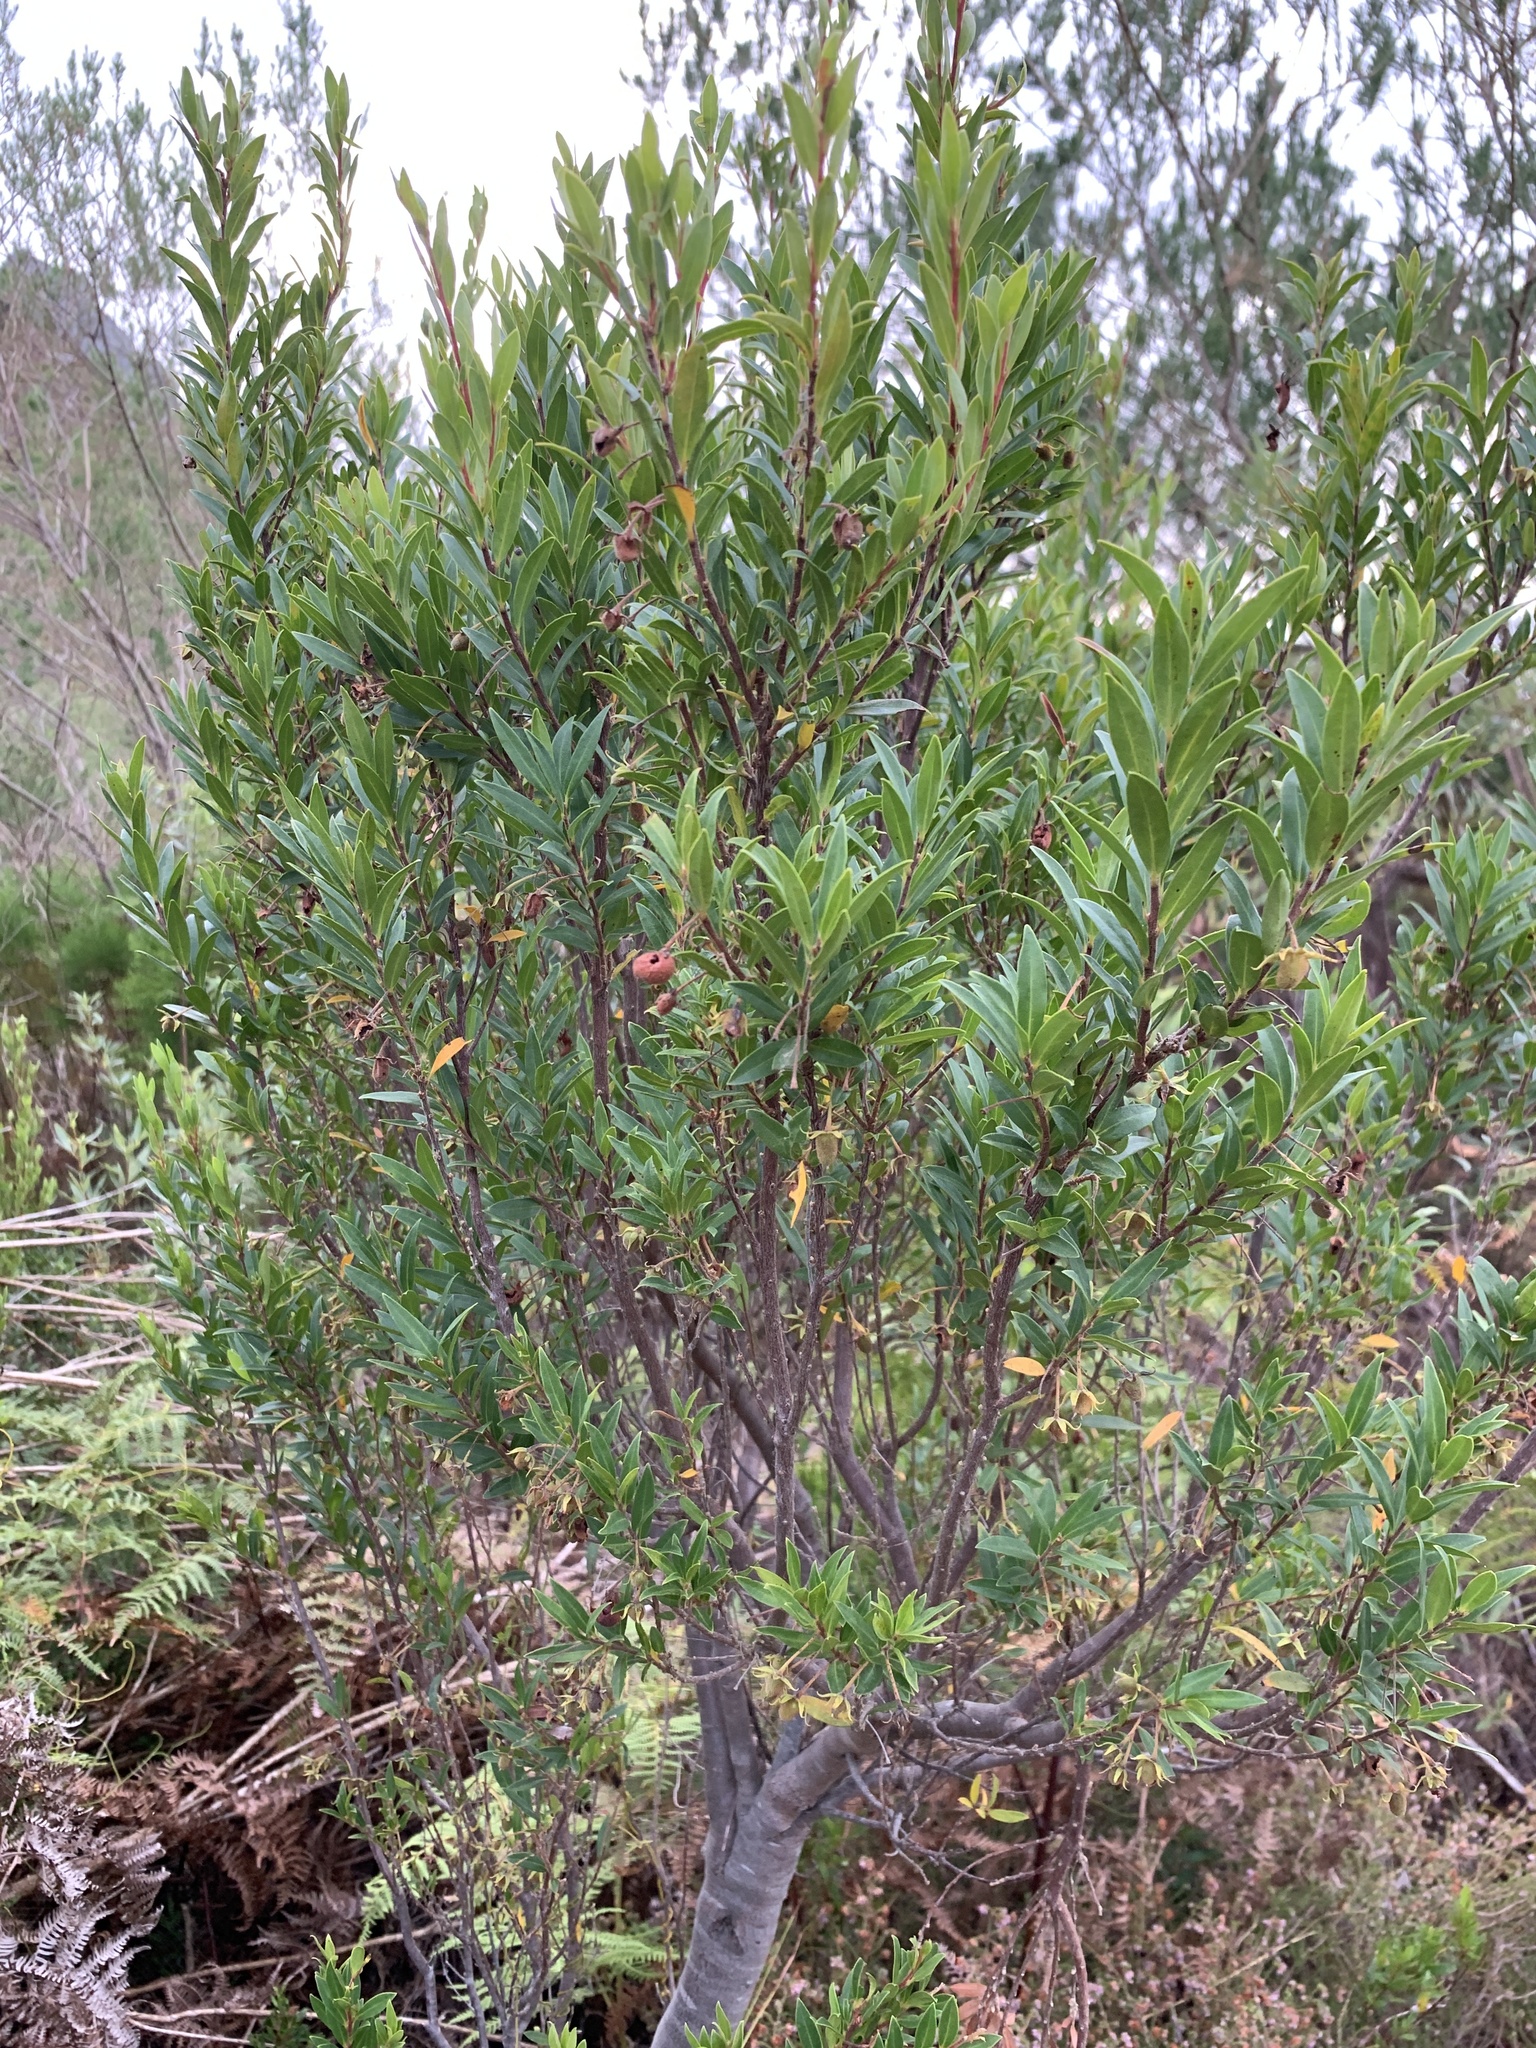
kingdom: Plantae
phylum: Tracheophyta
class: Magnoliopsida
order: Ericales
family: Ebenaceae
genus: Diospyros
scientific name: Diospyros glabra
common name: Fynbos star apple
